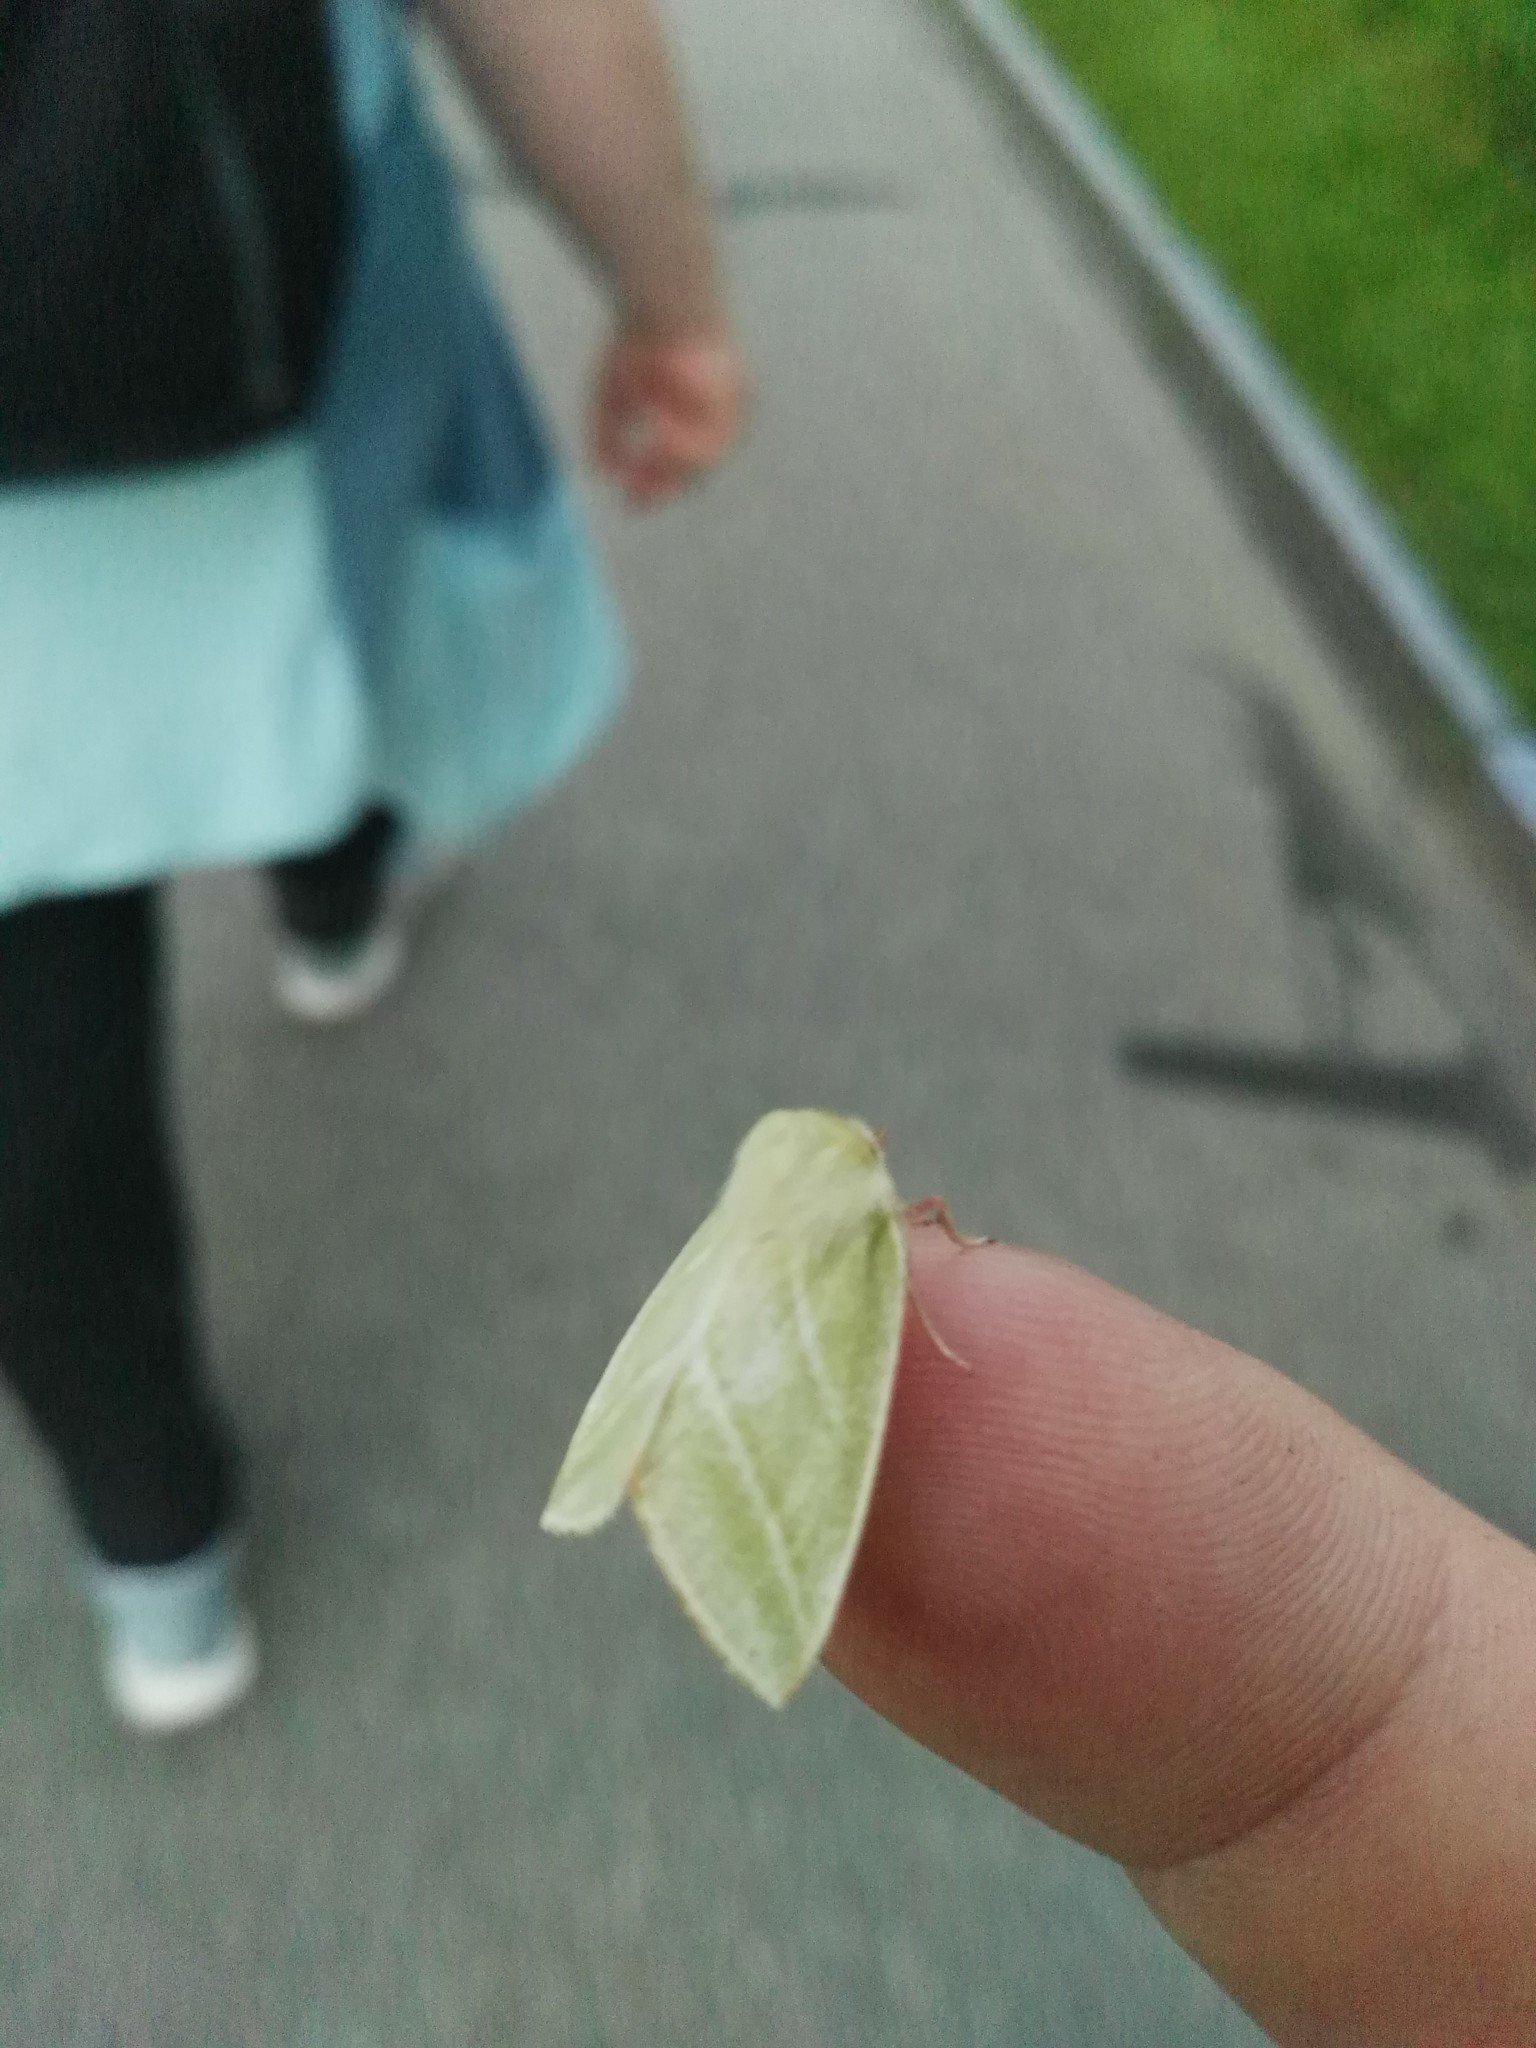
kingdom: Animalia
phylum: Arthropoda
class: Insecta
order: Lepidoptera
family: Nolidae
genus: Pseudoips
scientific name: Pseudoips prasinana
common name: Green silver-lines
